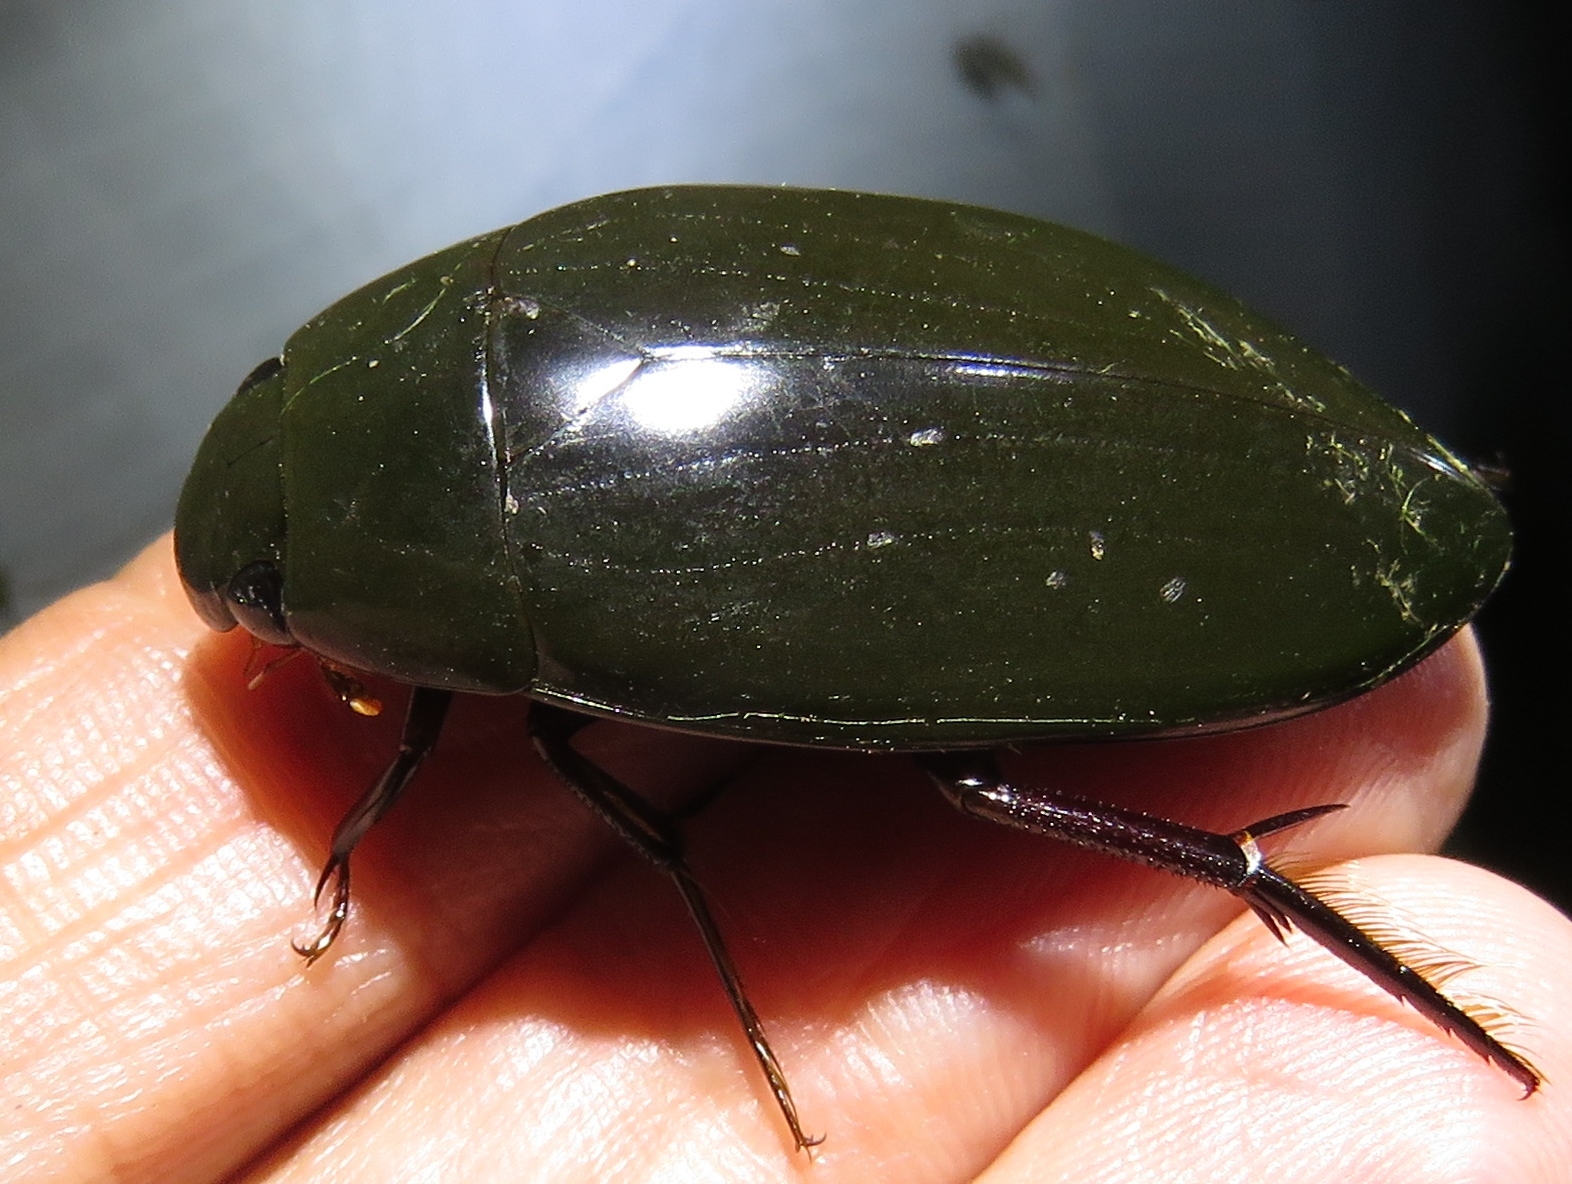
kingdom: Animalia
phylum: Arthropoda
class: Insecta
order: Coleoptera
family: Hydrophilidae
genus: Hydrophilus
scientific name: Hydrophilus triangularis
